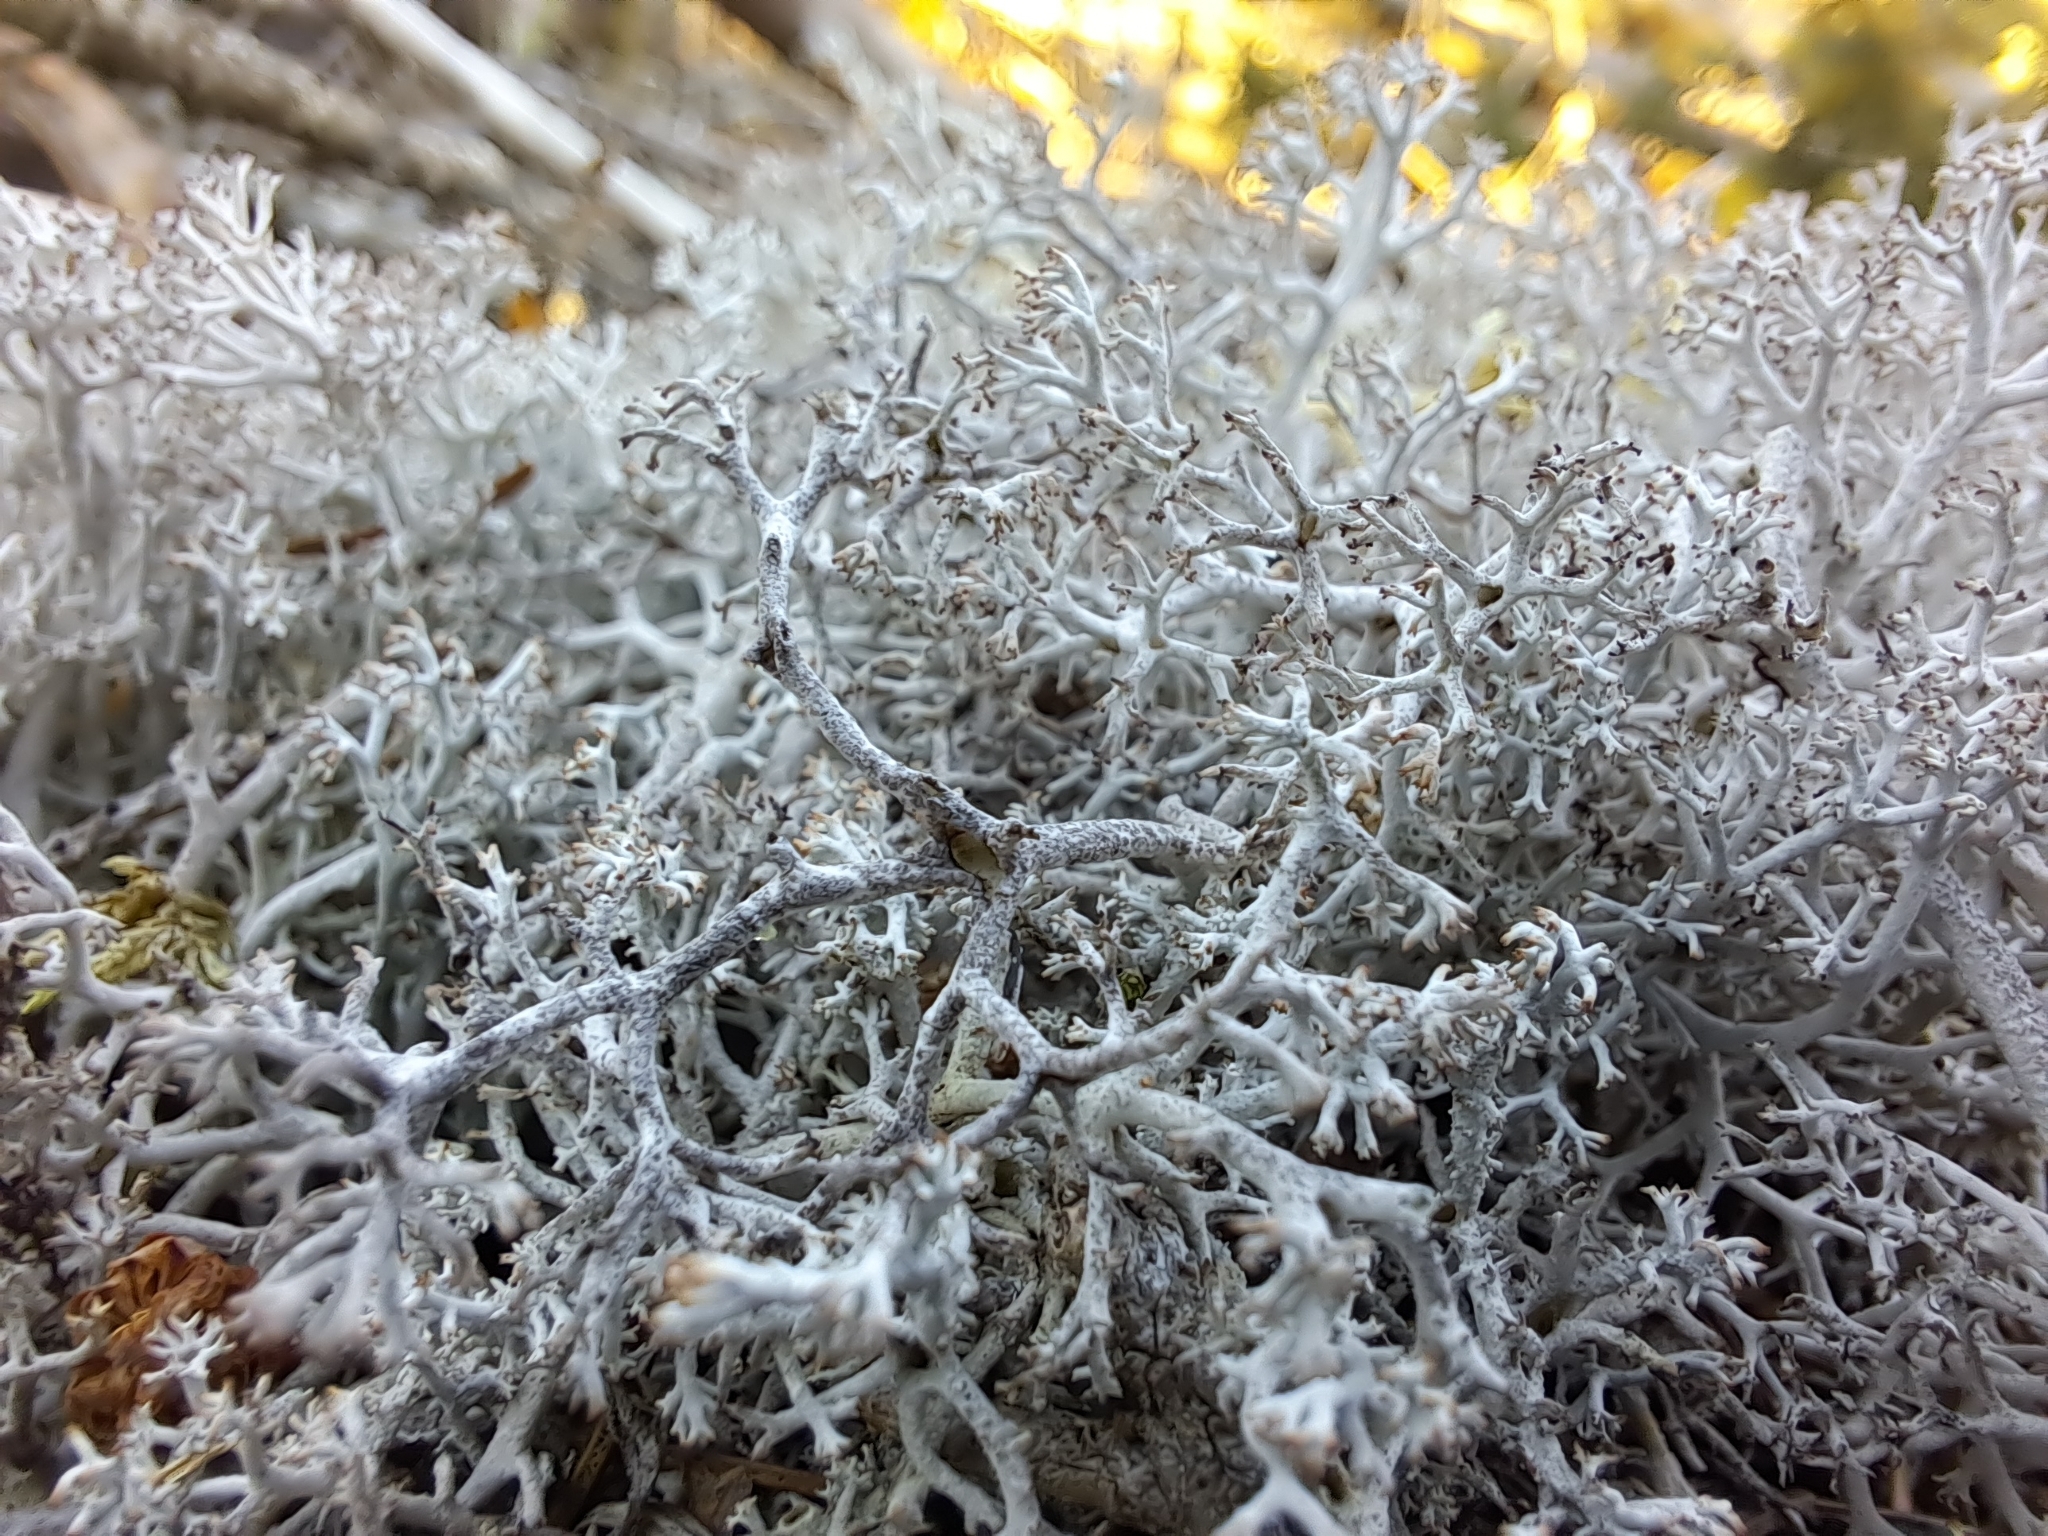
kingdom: Fungi
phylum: Ascomycota
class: Lecanoromycetes
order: Lecanorales
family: Cladoniaceae
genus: Cladonia
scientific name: Cladonia rangiferina
